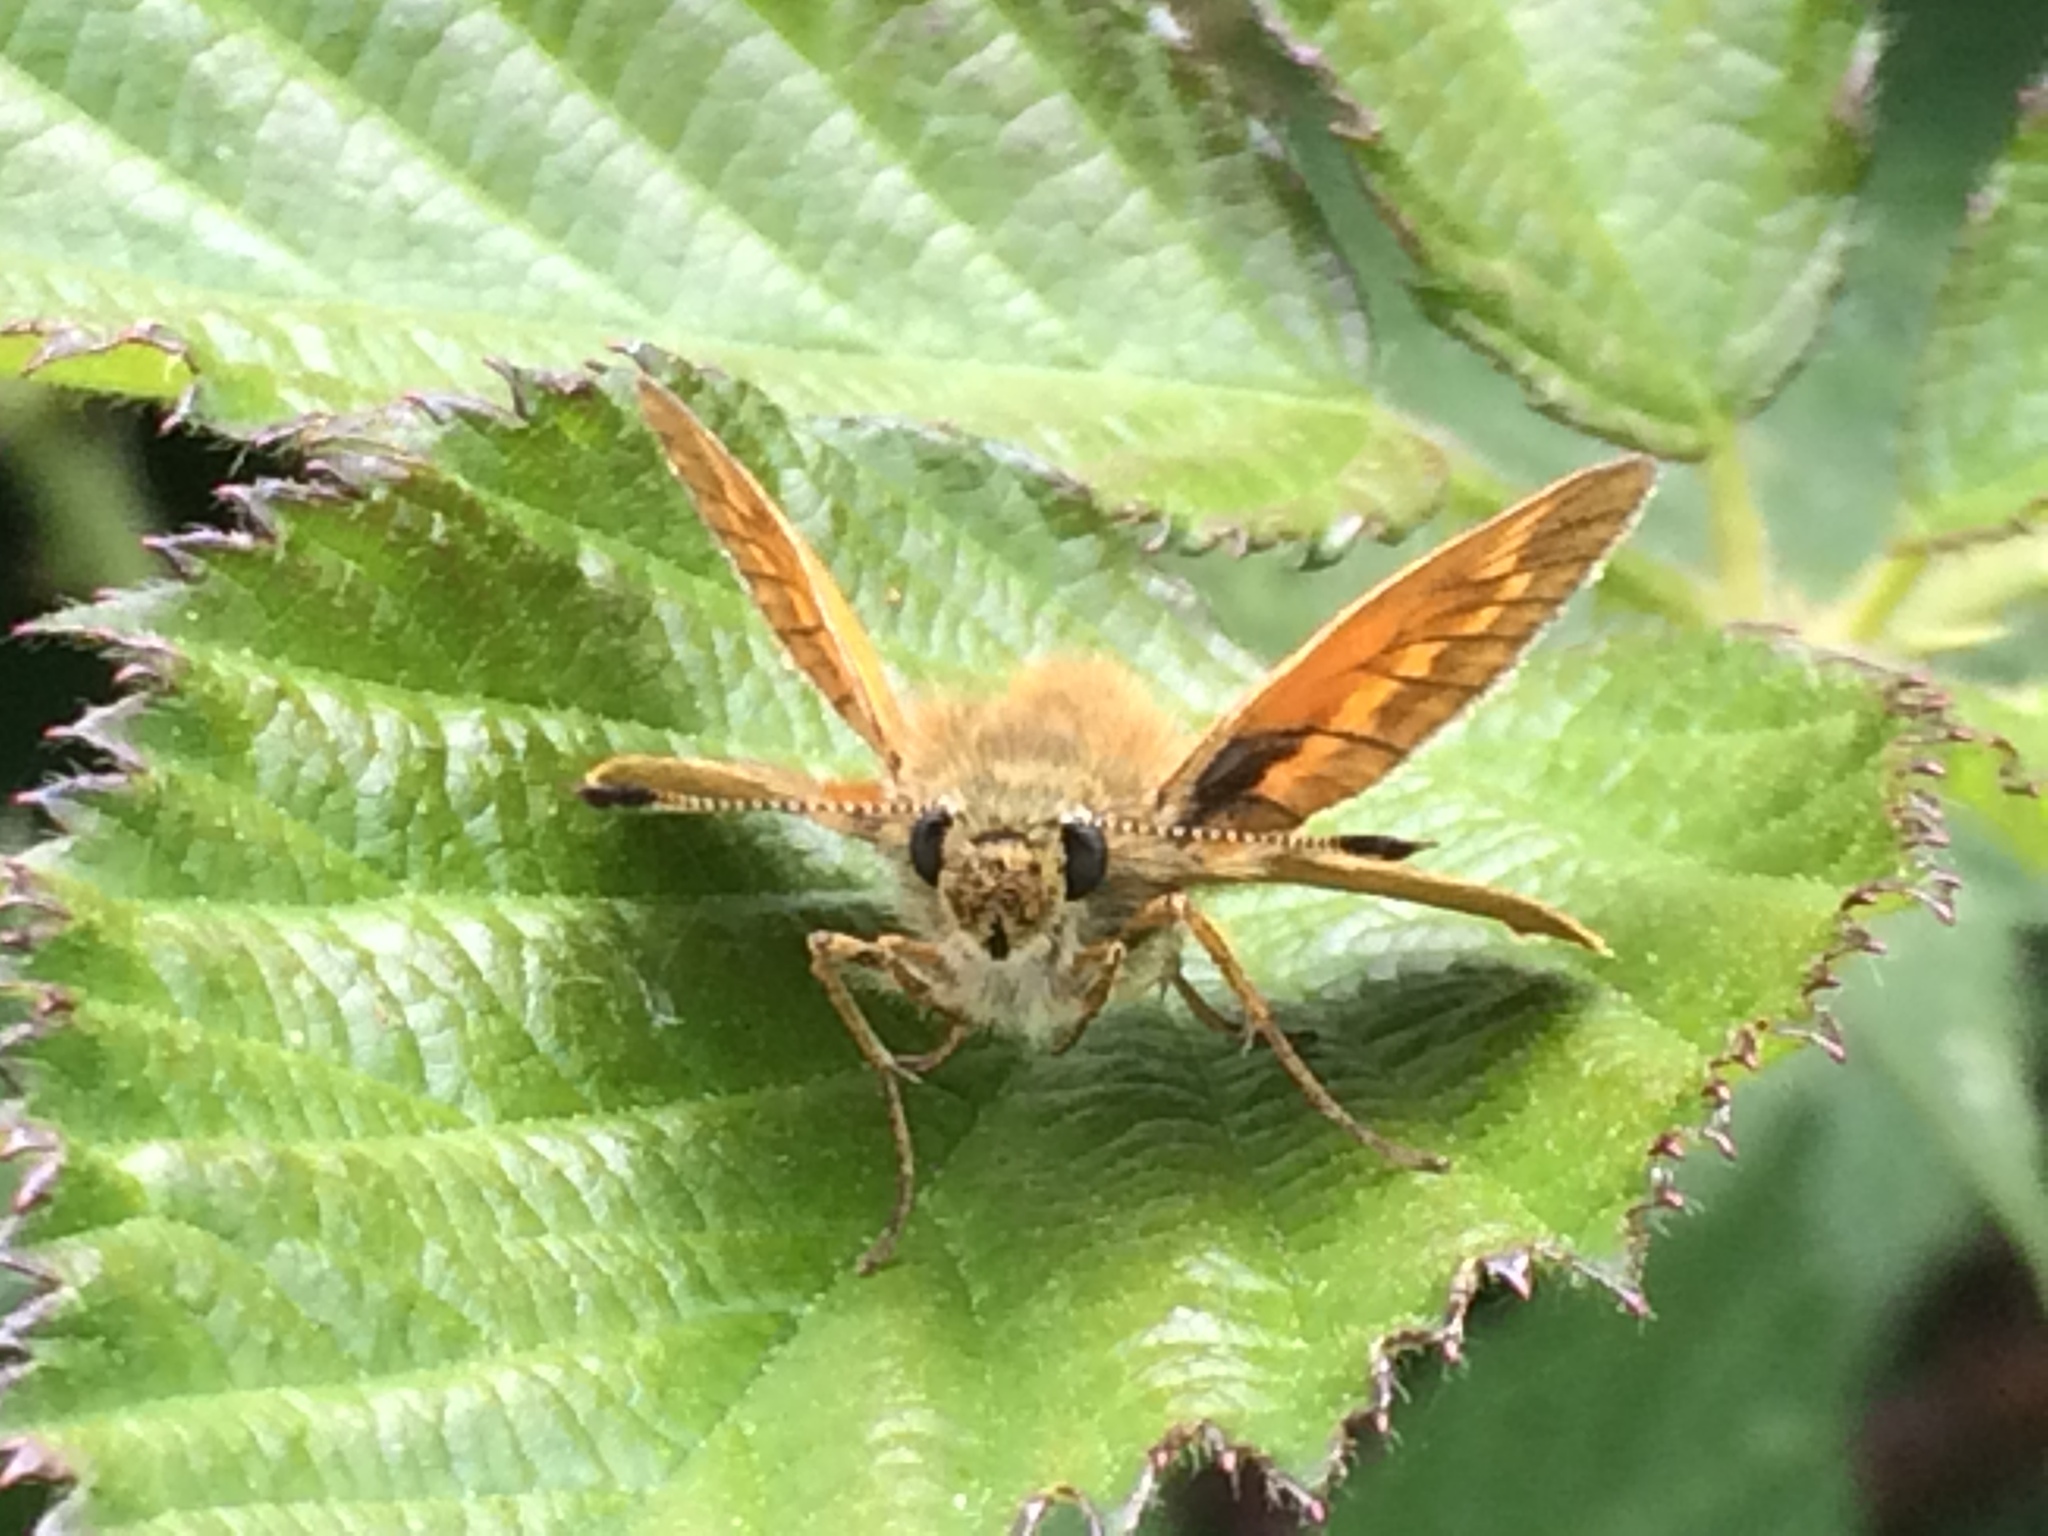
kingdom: Animalia
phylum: Arthropoda
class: Insecta
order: Lepidoptera
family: Hesperiidae
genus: Ochlodes
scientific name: Ochlodes venata
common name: Large skipper
